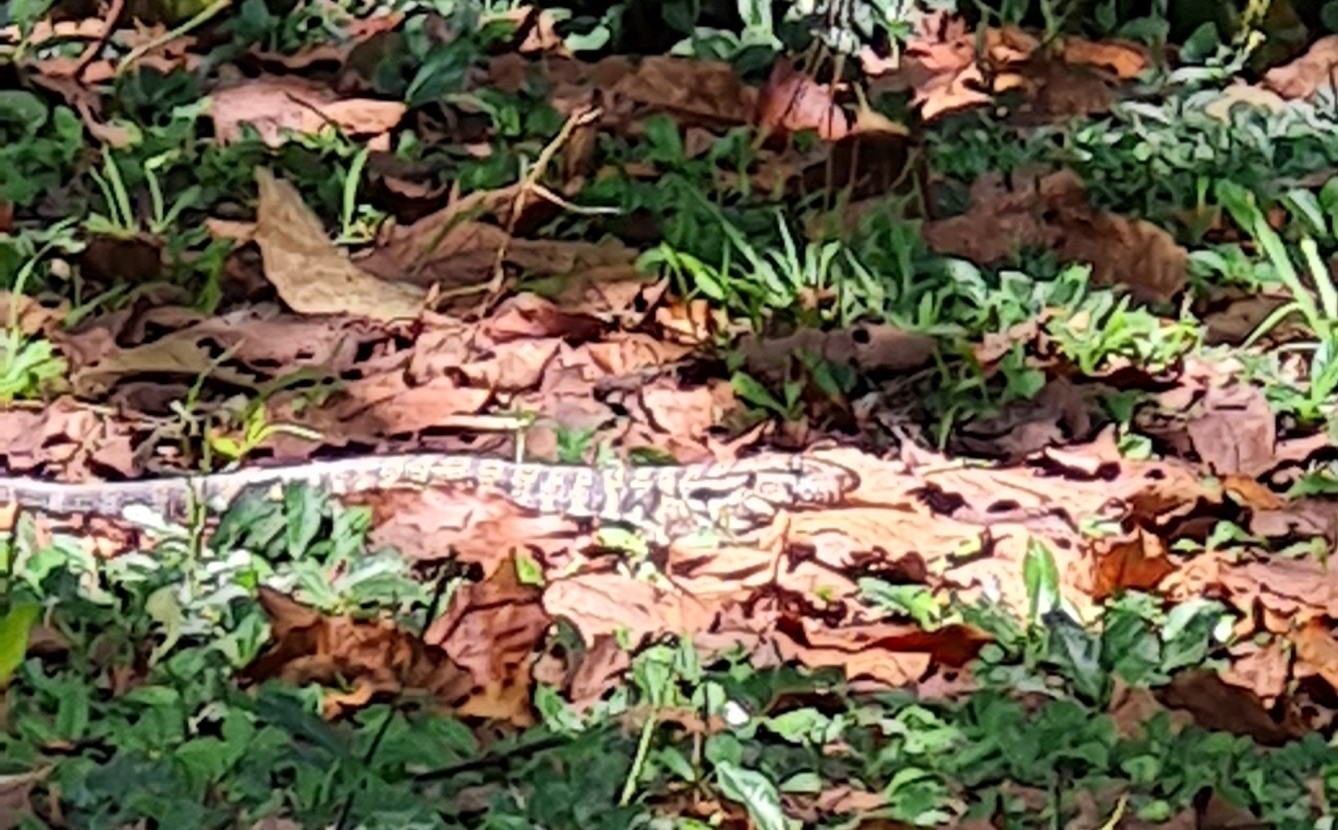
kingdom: Animalia
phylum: Chordata
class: Squamata
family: Teiidae
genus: Salvator
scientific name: Salvator merianae
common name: Argentine black and white tegu
